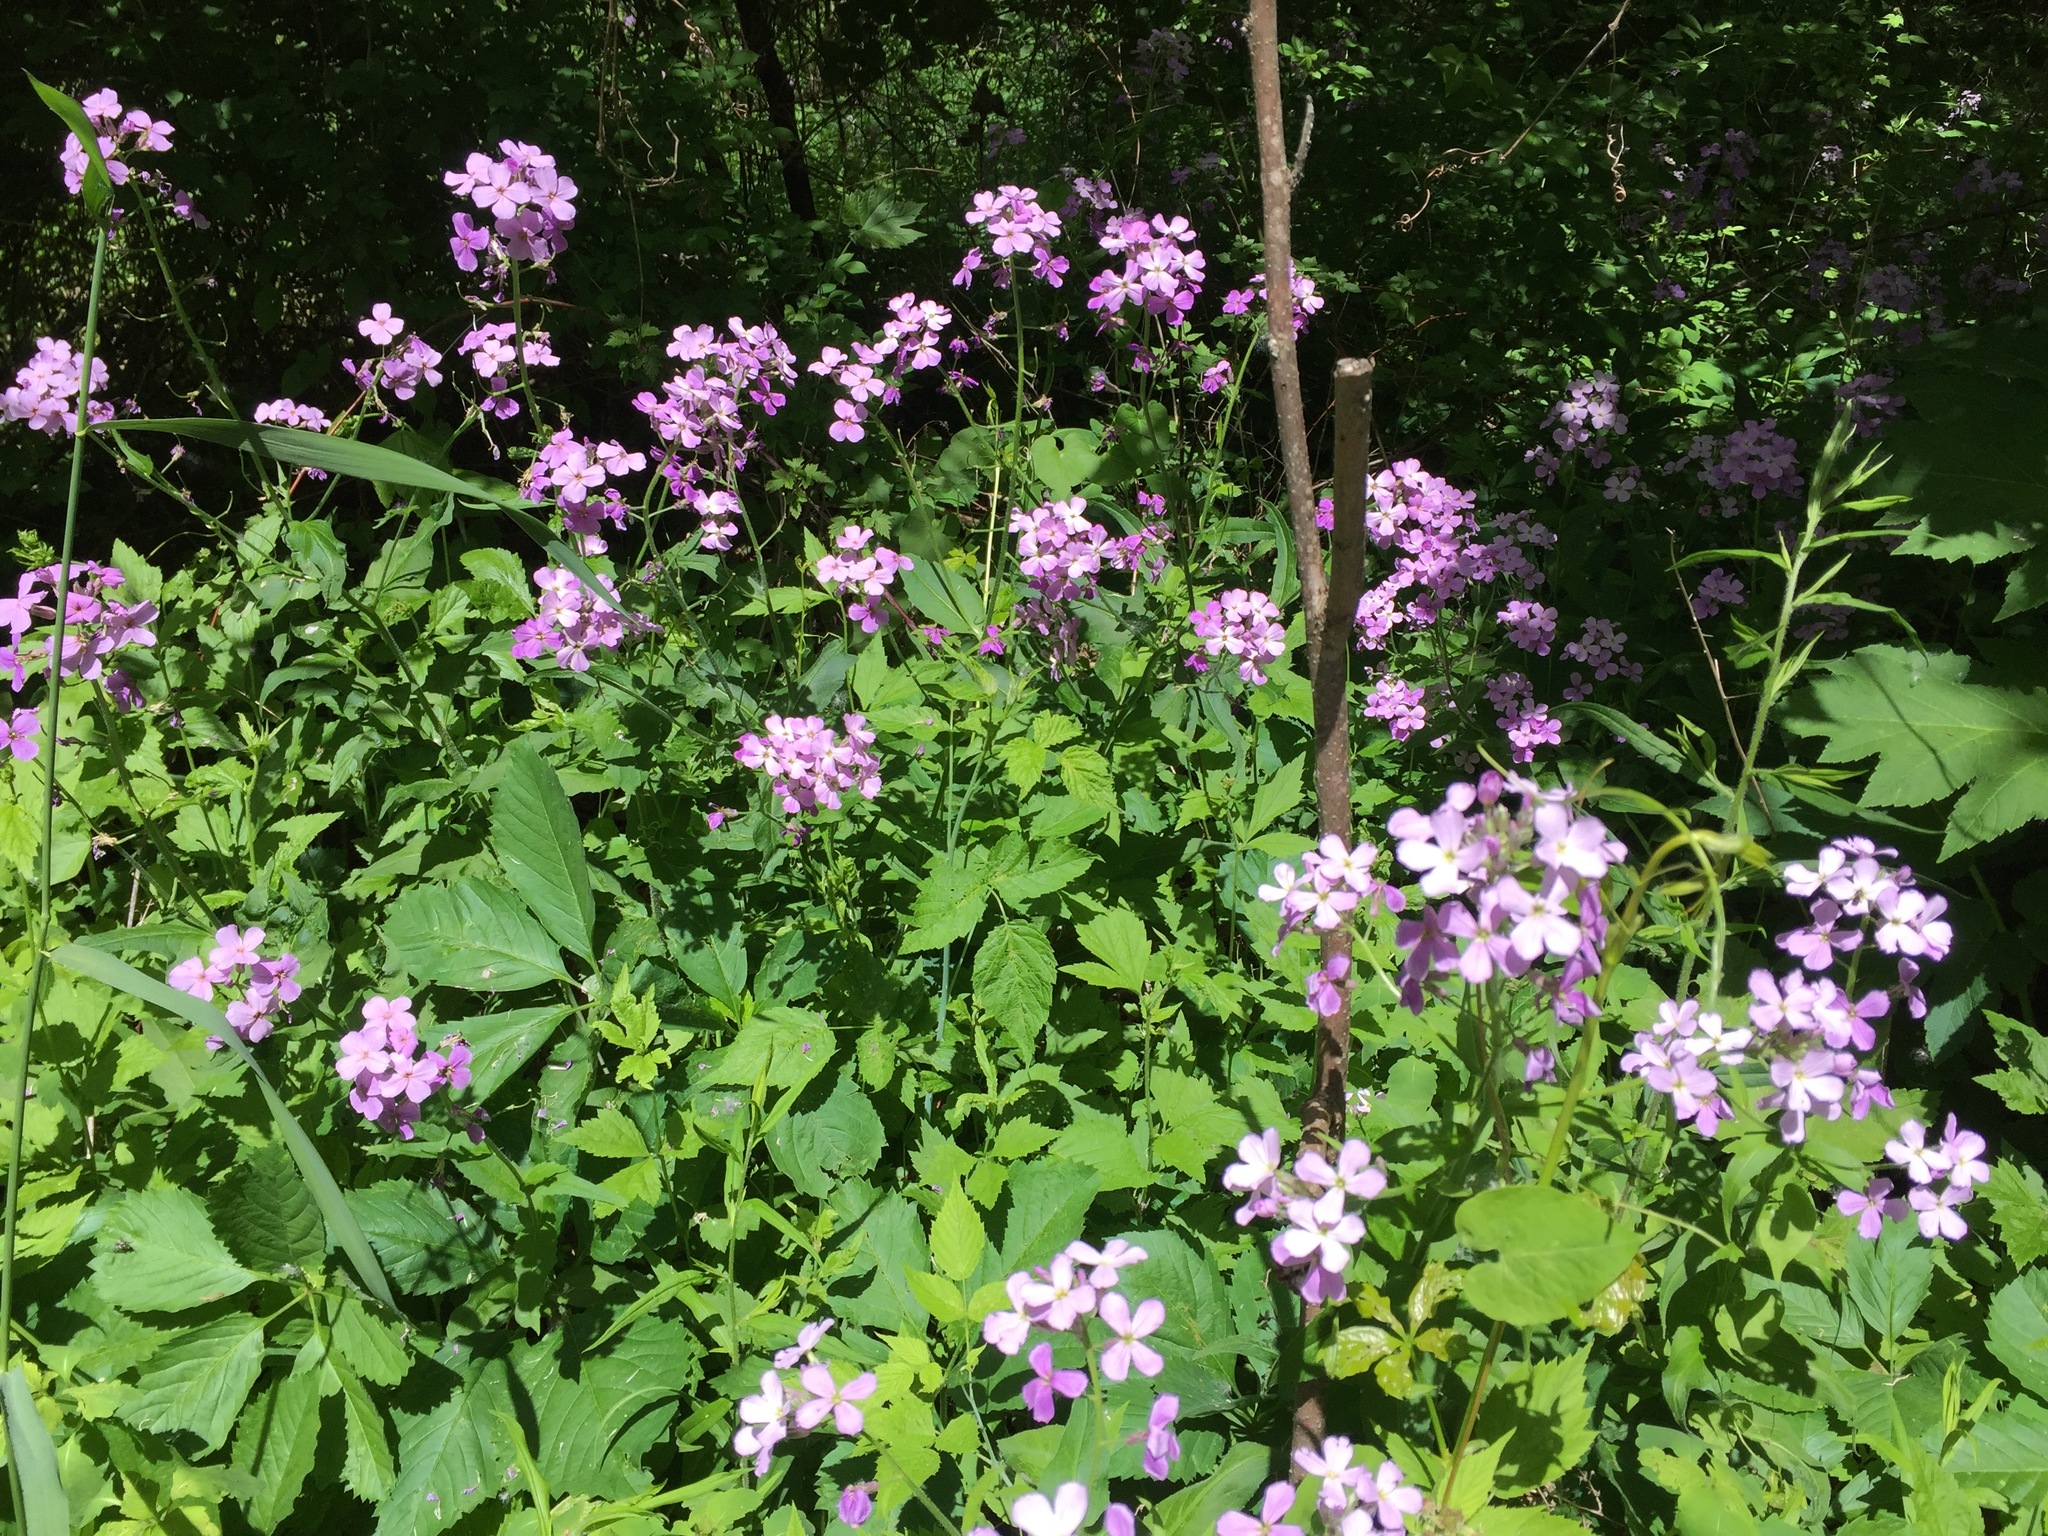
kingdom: Plantae
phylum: Tracheophyta
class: Magnoliopsida
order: Brassicales
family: Brassicaceae
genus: Hesperis
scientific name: Hesperis matronalis
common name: Dame's-violet
